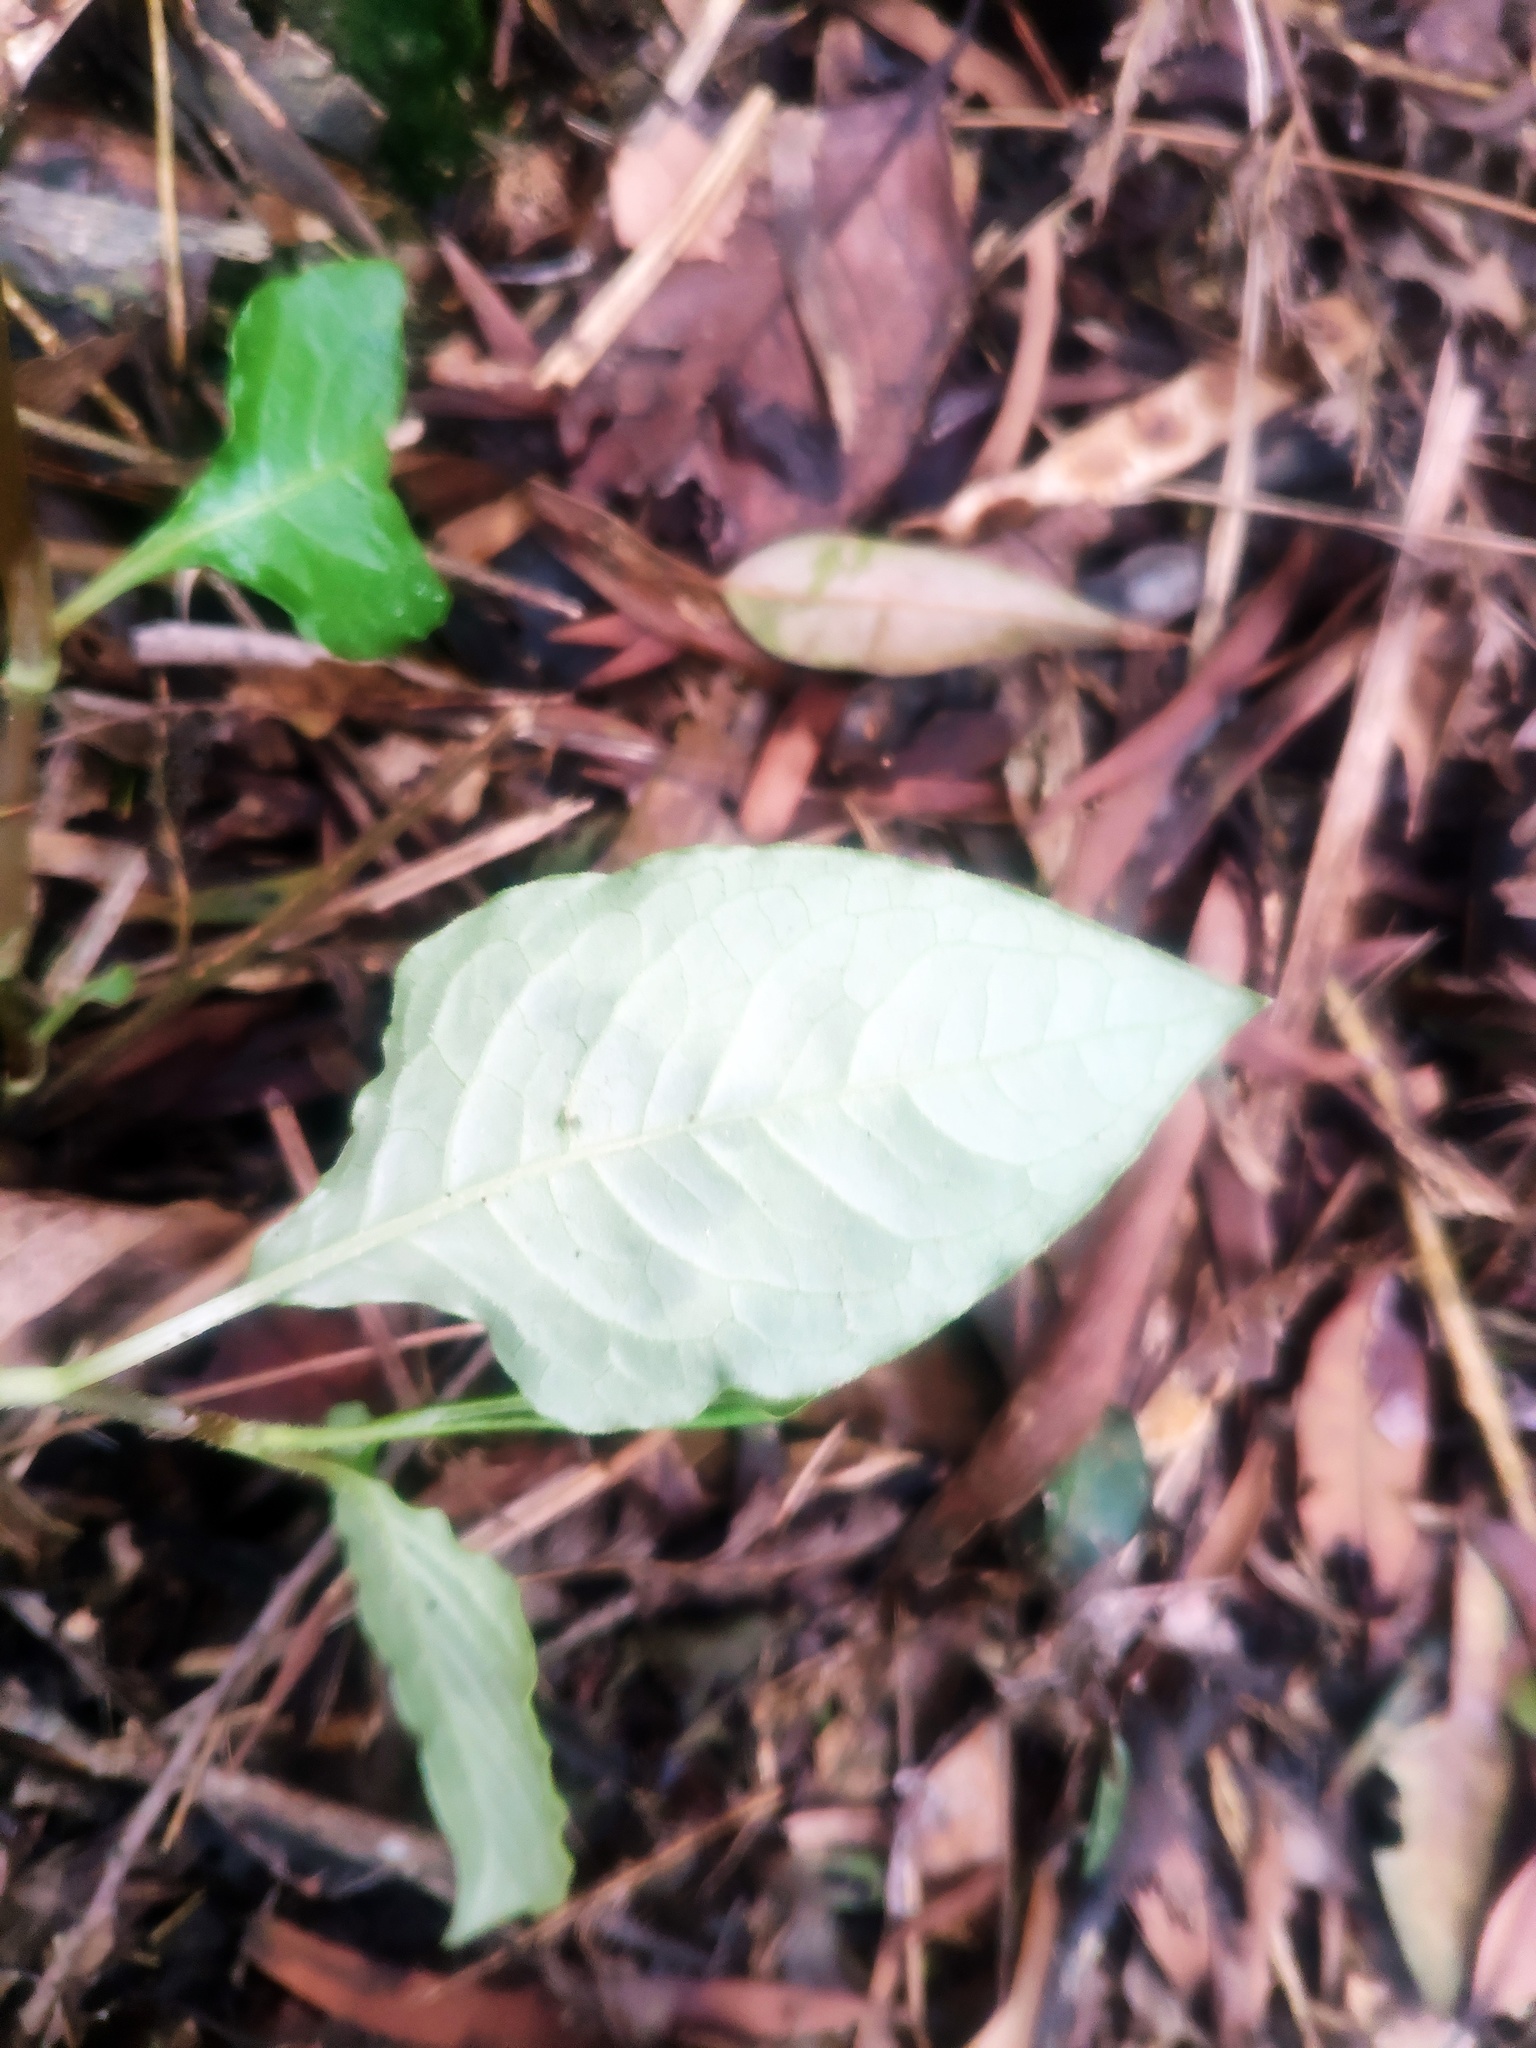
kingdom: Plantae
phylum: Tracheophyta
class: Magnoliopsida
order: Caryophyllales
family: Polygonaceae
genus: Persicaria
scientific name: Persicaria chinensis
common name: Chinese knotweed
